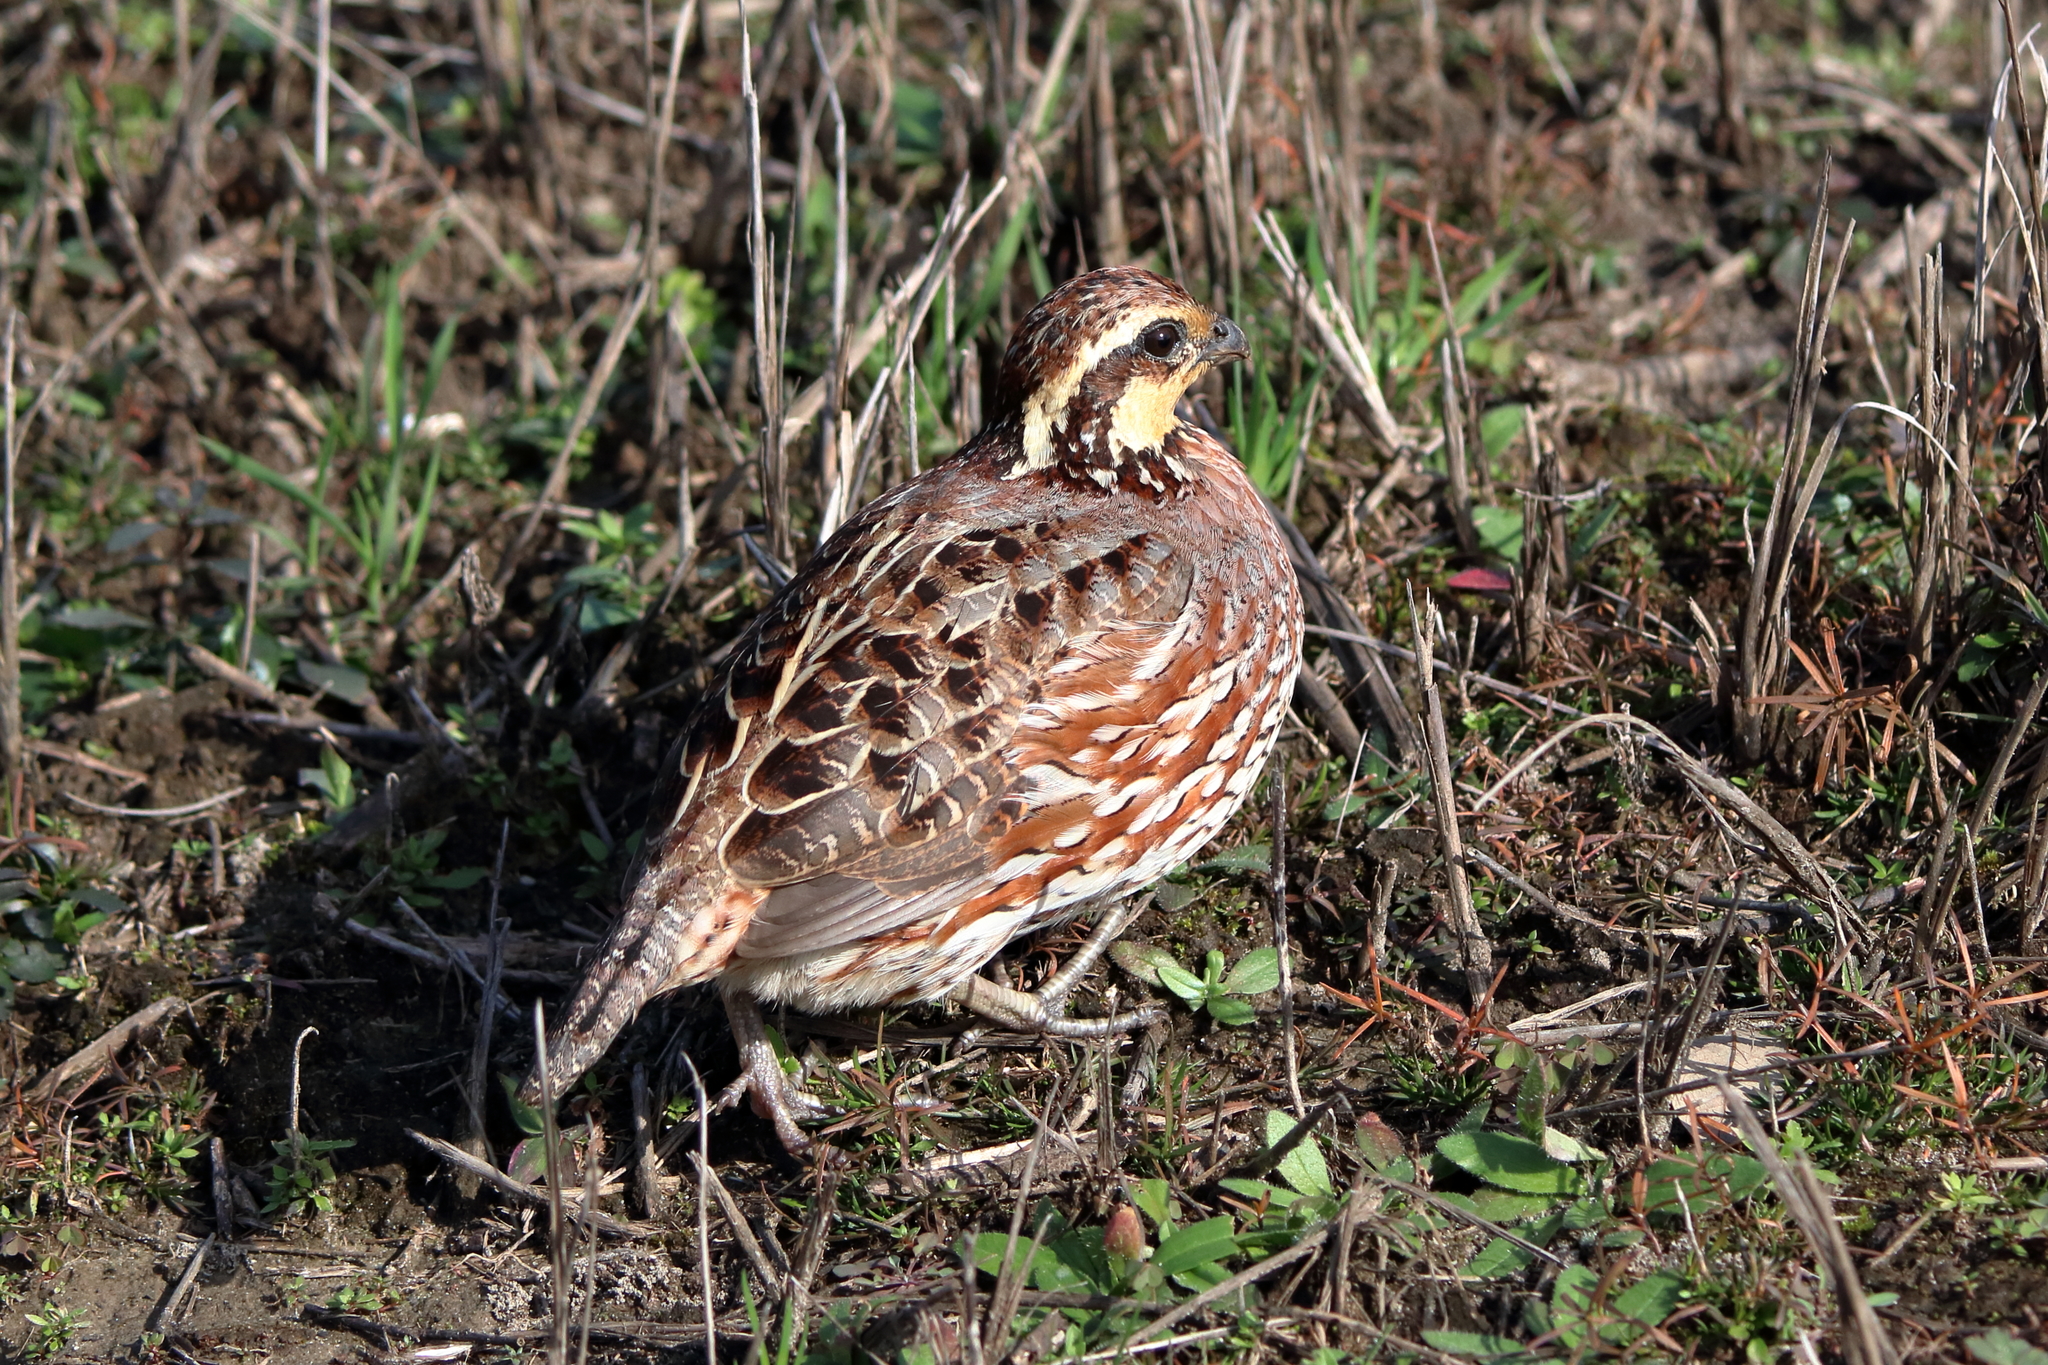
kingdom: Animalia
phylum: Chordata
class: Aves
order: Galliformes
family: Odontophoridae
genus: Colinus
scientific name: Colinus virginianus
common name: Northern bobwhite
